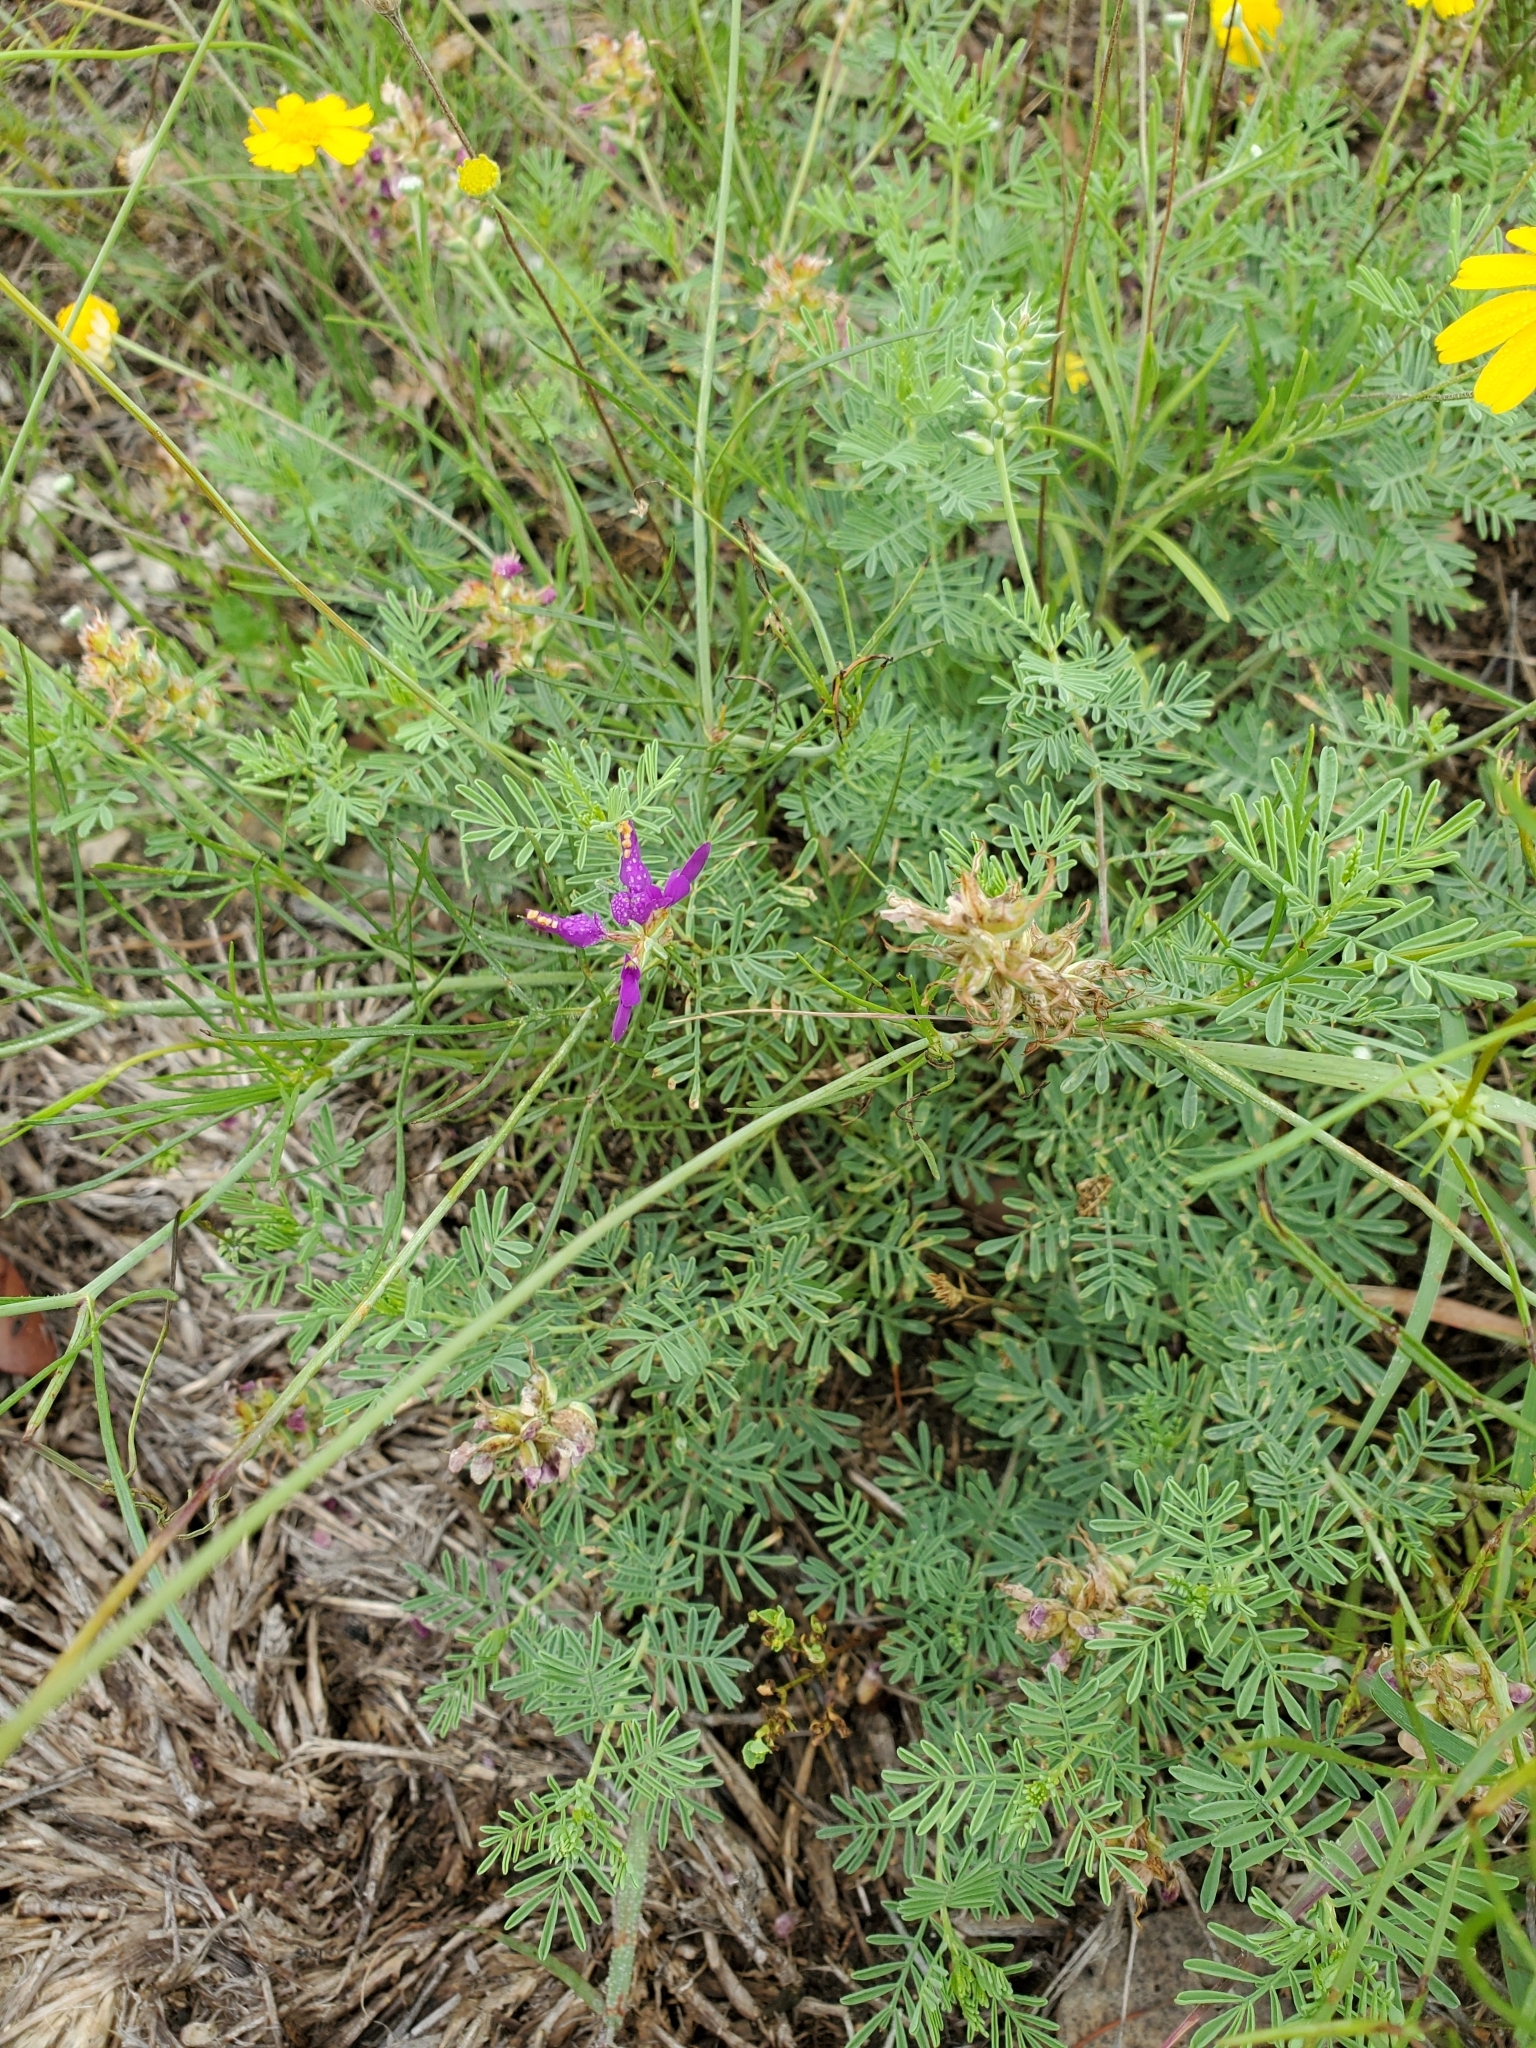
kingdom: Plantae
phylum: Tracheophyta
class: Magnoliopsida
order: Fabales
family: Fabaceae
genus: Dalea
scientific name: Dalea lasiathera
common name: Purple prairie-clover
